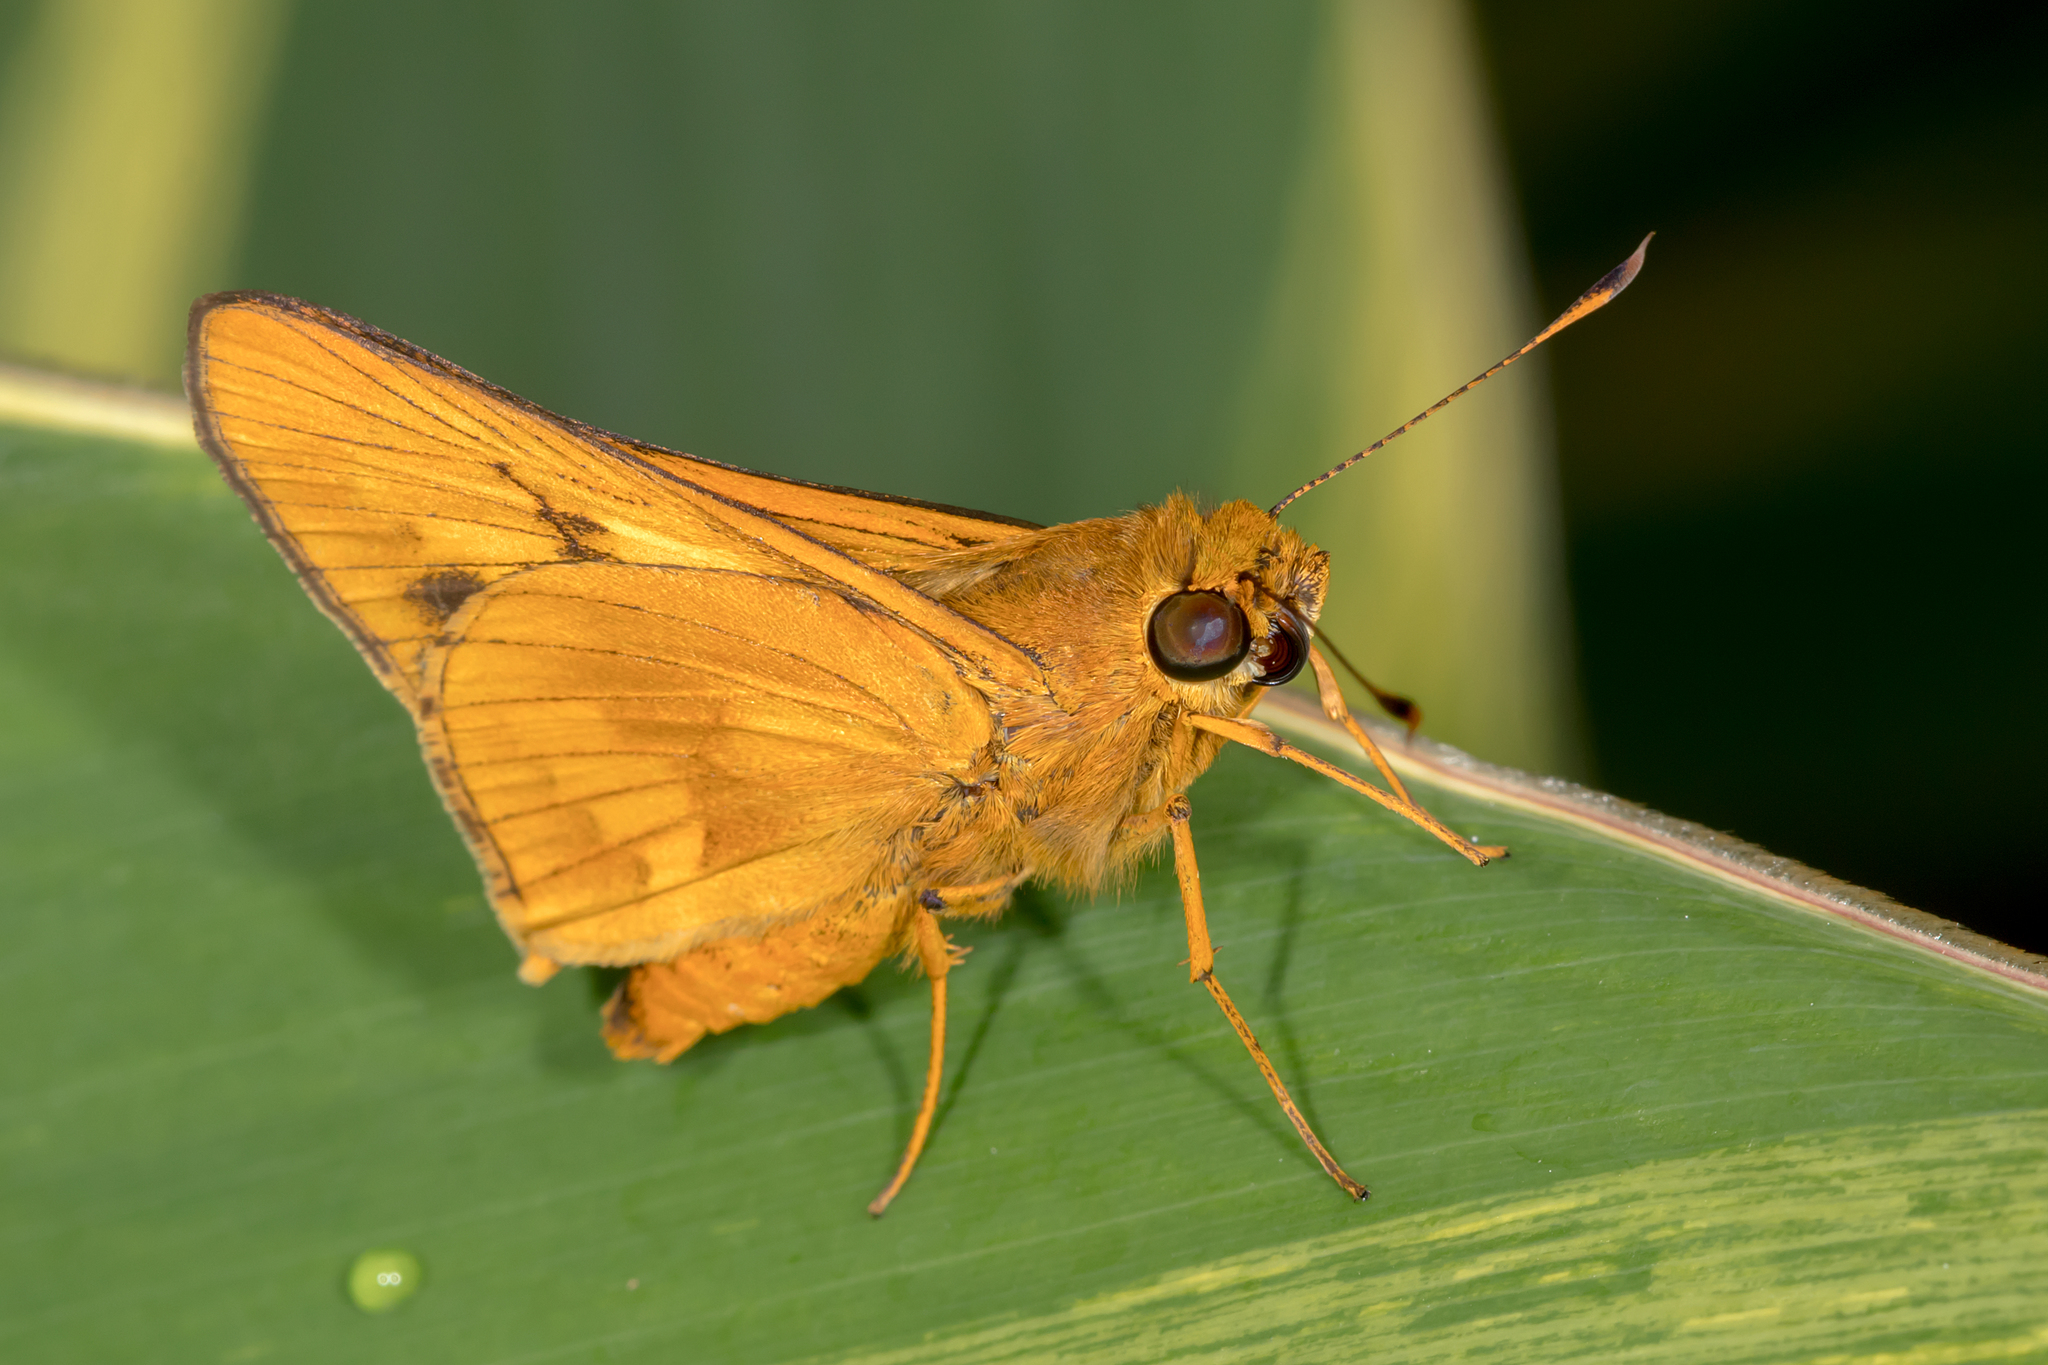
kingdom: Animalia
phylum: Arthropoda
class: Insecta
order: Lepidoptera
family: Hesperiidae
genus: Cephrenes
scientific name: Cephrenes augiades
